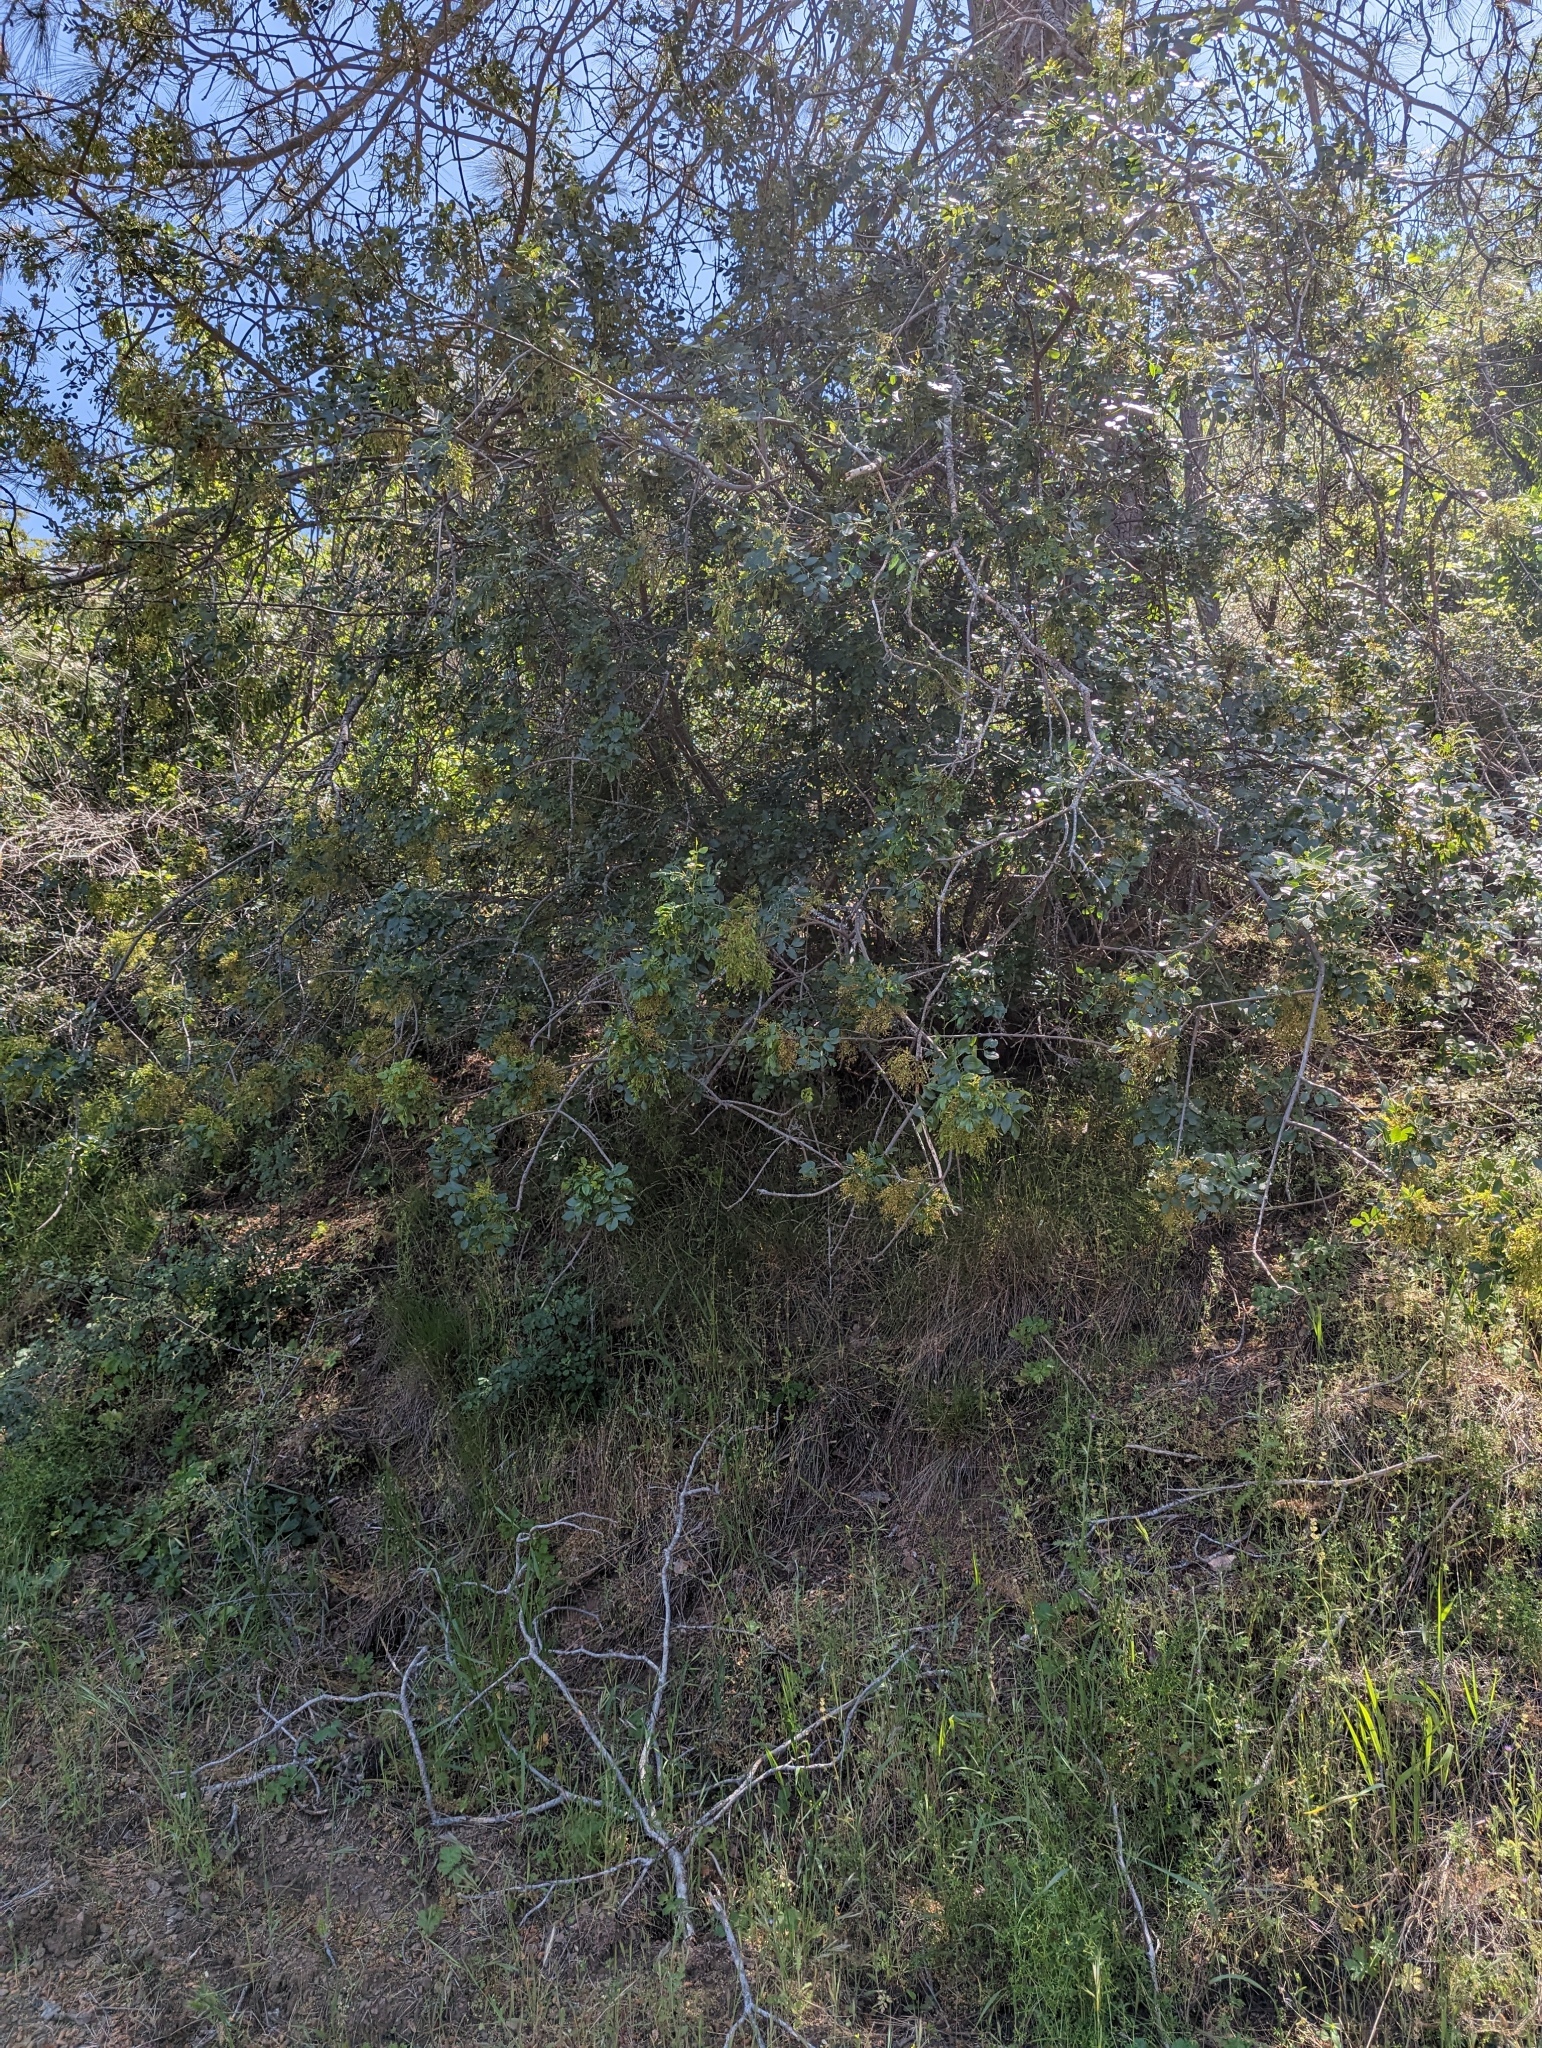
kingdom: Plantae
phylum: Tracheophyta
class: Magnoliopsida
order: Lamiales
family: Oleaceae
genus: Fraxinus
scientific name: Fraxinus dipetala
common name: California ash
